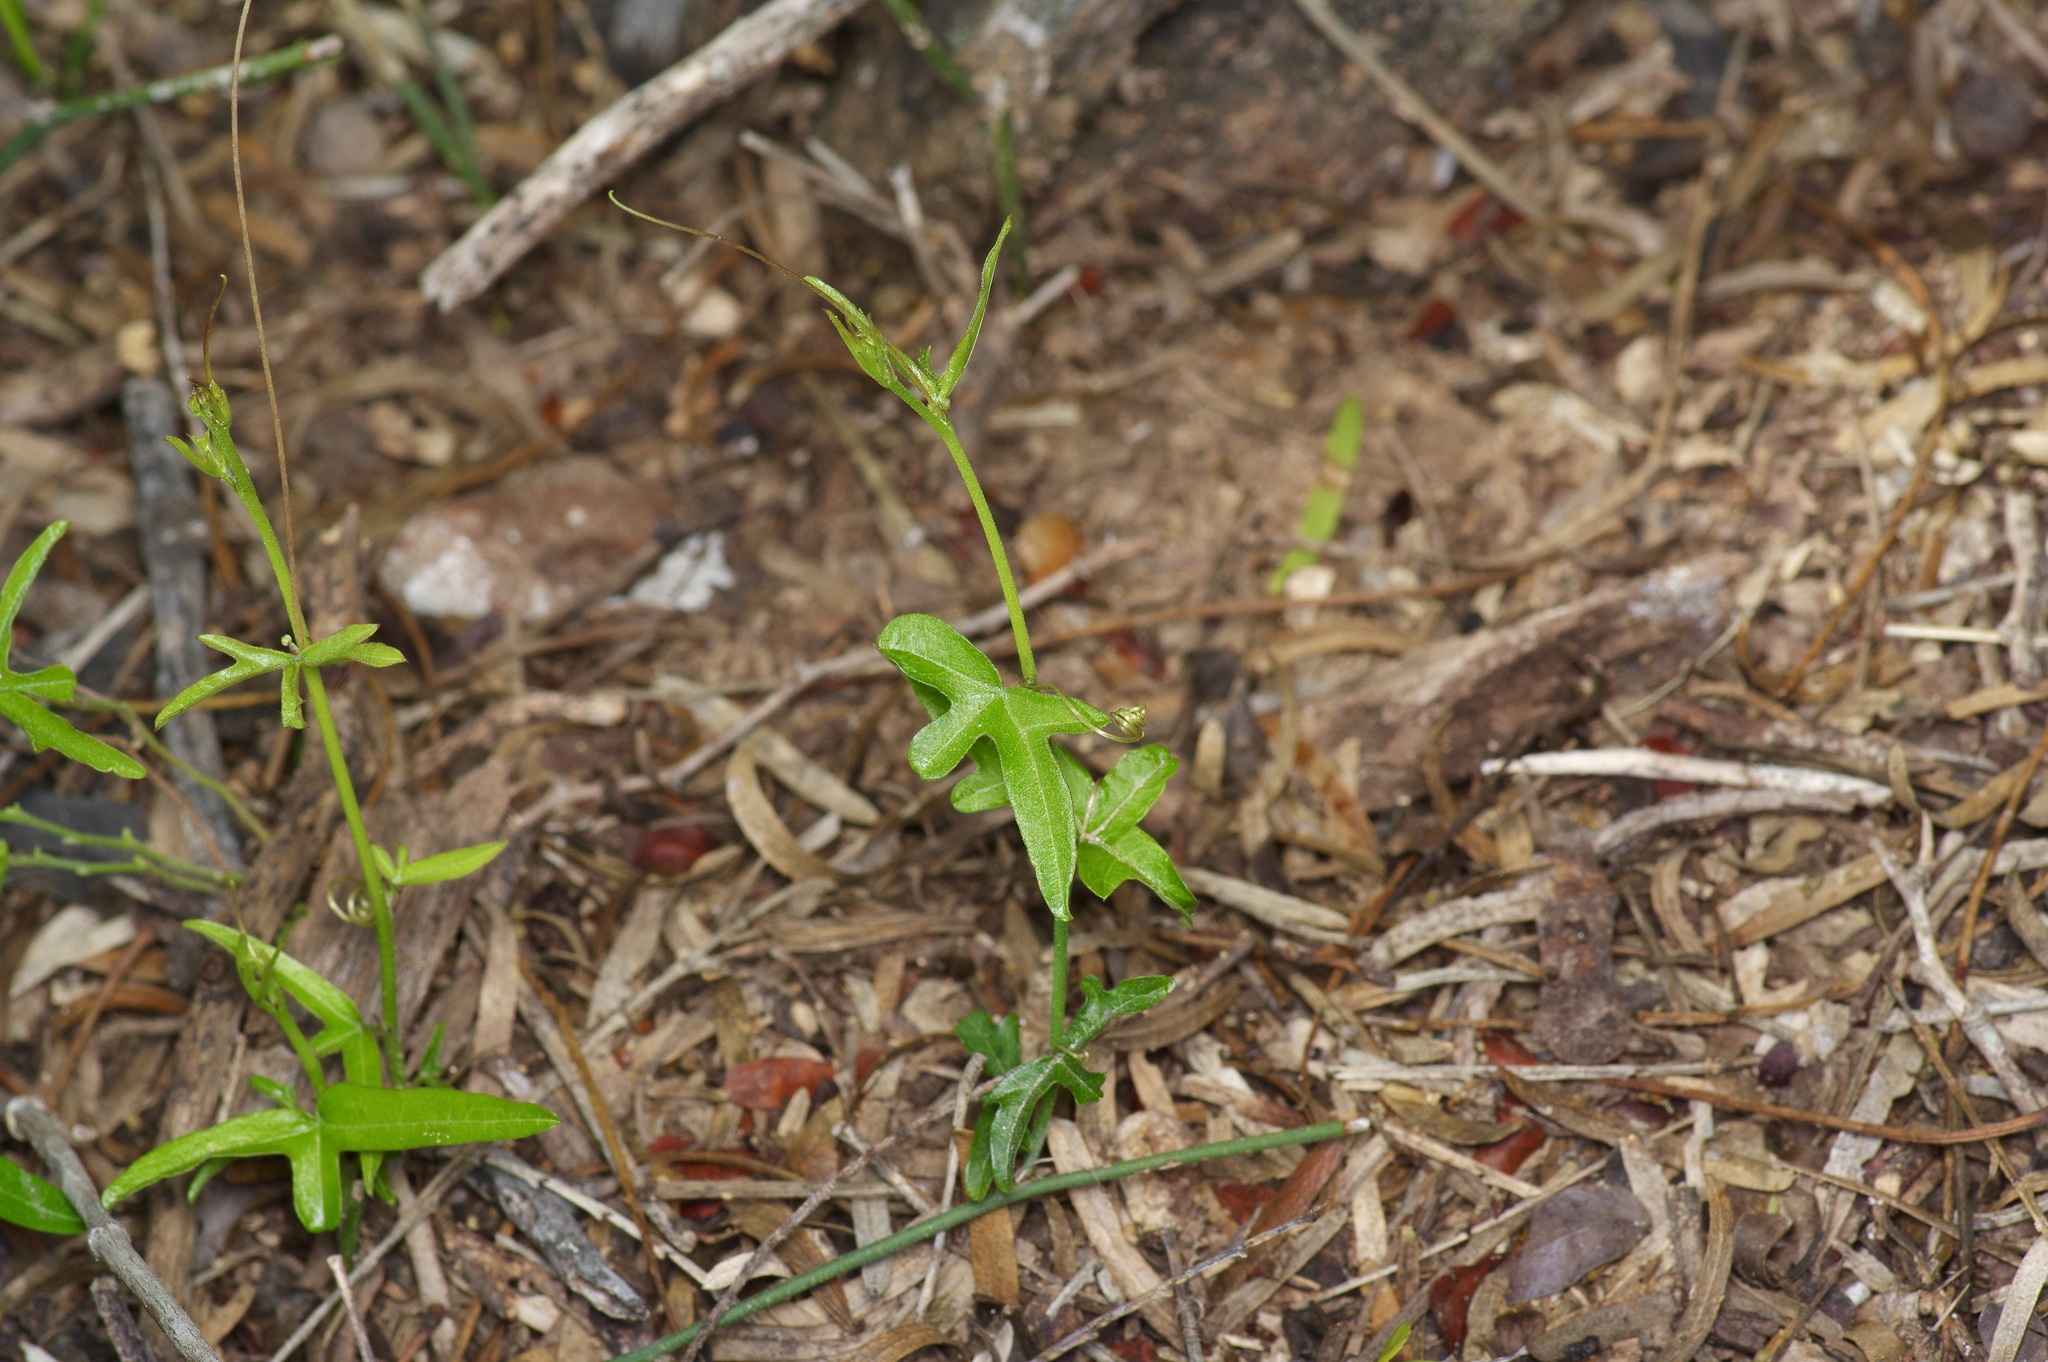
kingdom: Plantae
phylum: Tracheophyta
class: Magnoliopsida
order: Malpighiales
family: Passifloraceae
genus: Passiflora
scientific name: Passiflora tenuiloba
